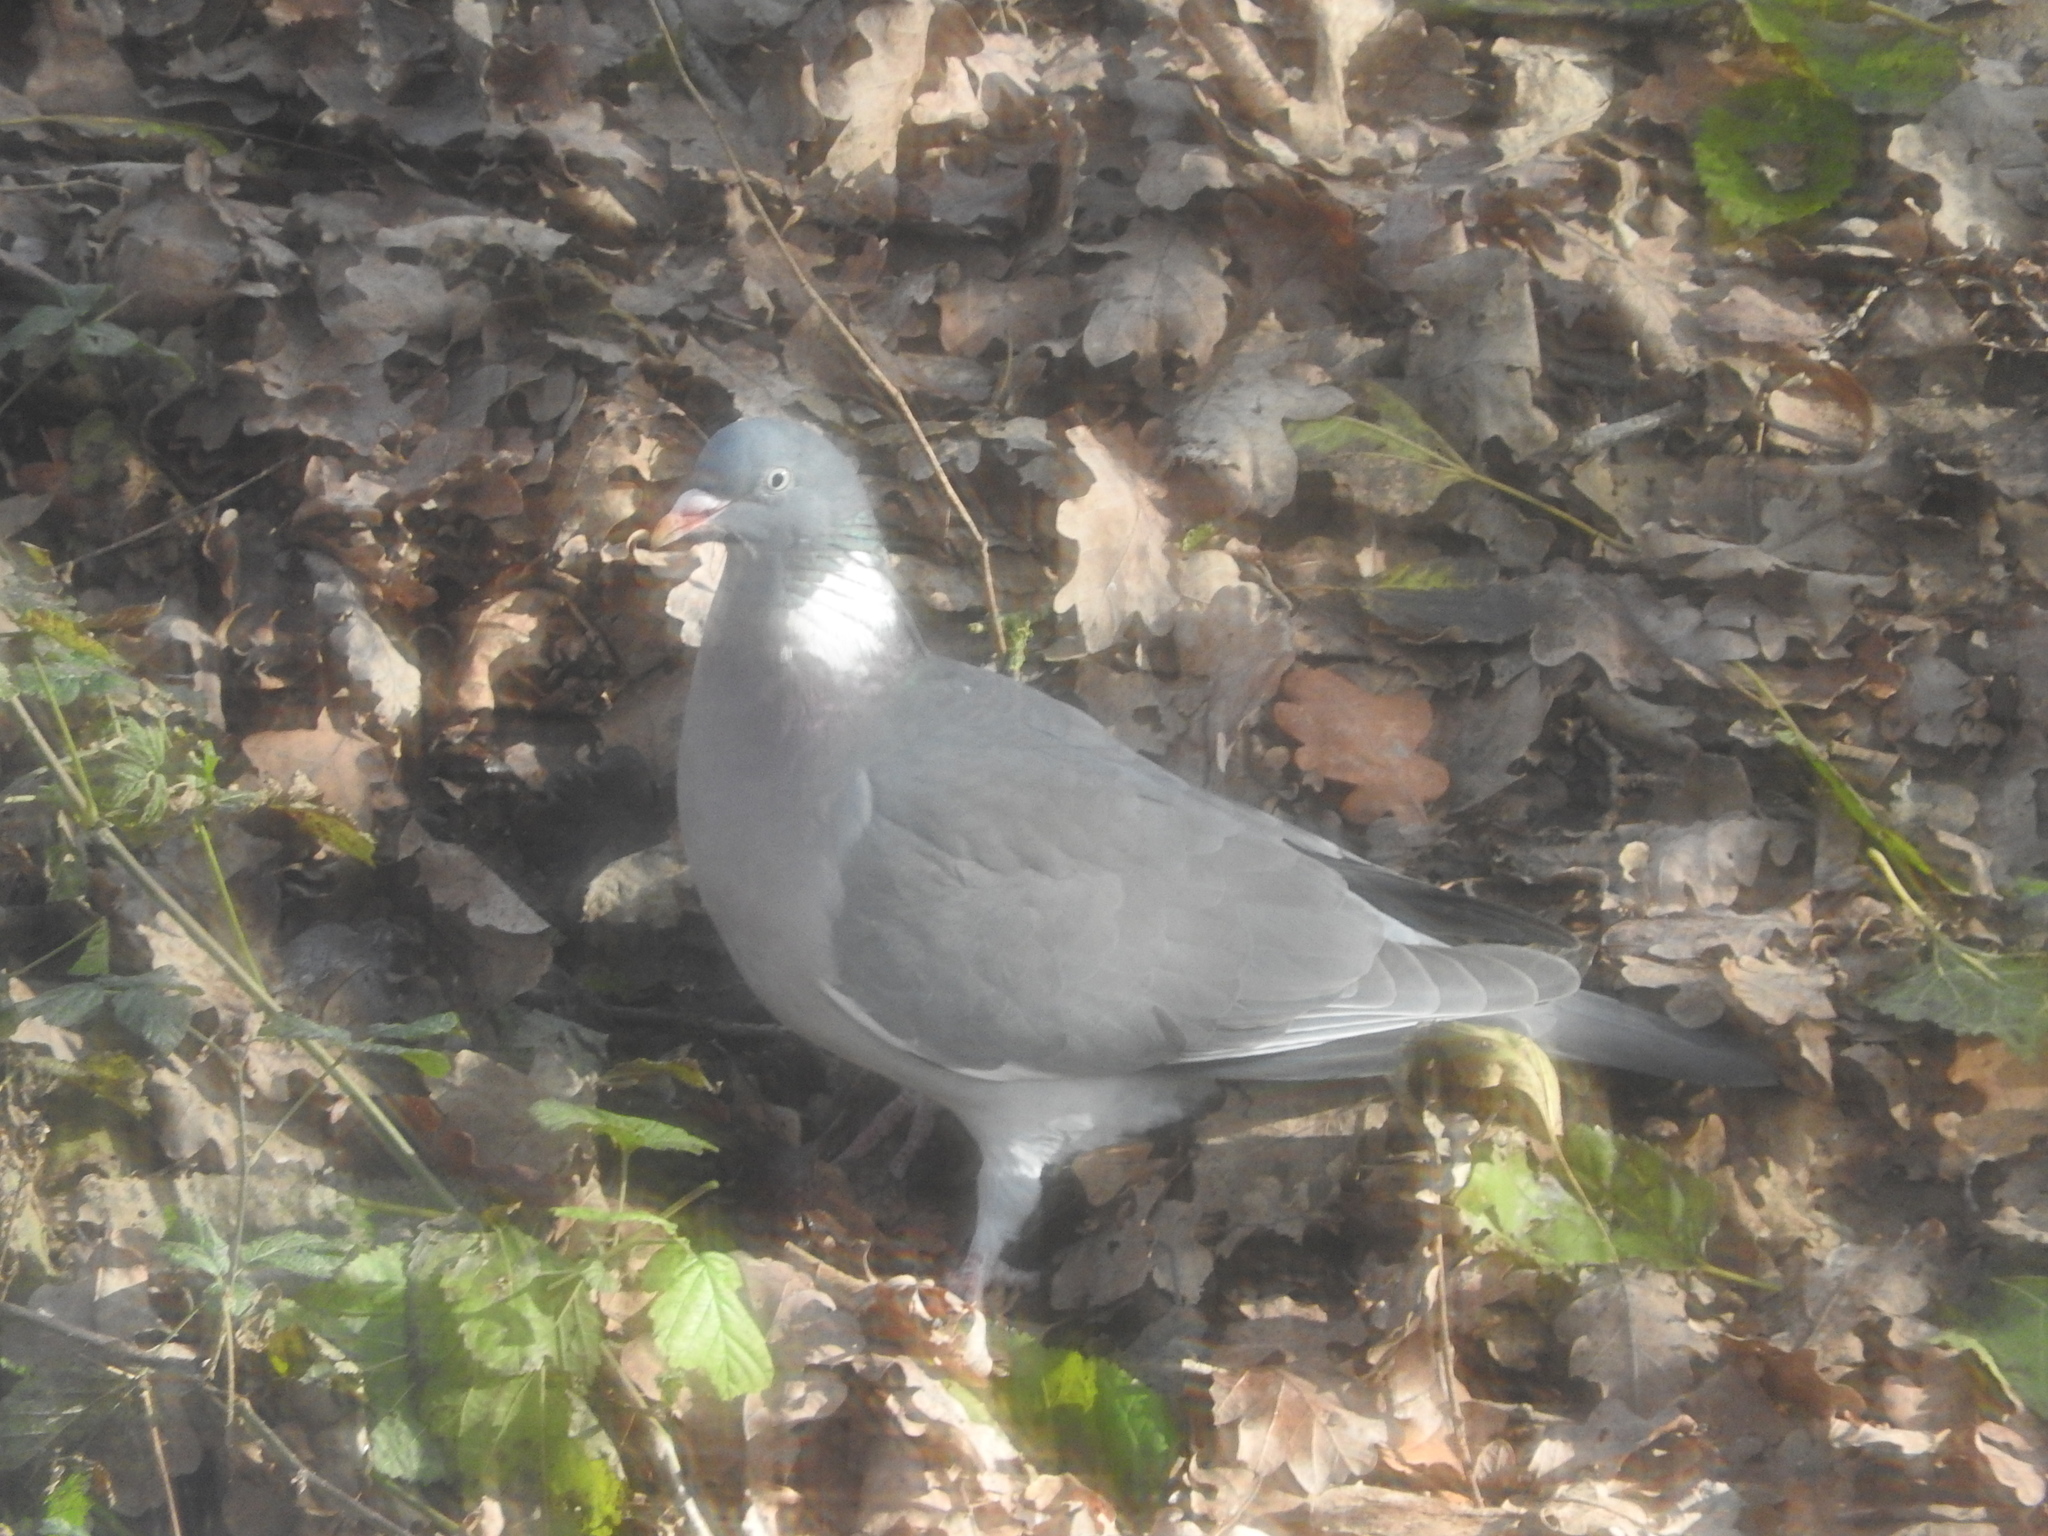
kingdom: Animalia
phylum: Chordata
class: Aves
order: Columbiformes
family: Columbidae
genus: Columba
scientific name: Columba palumbus
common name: Common wood pigeon
